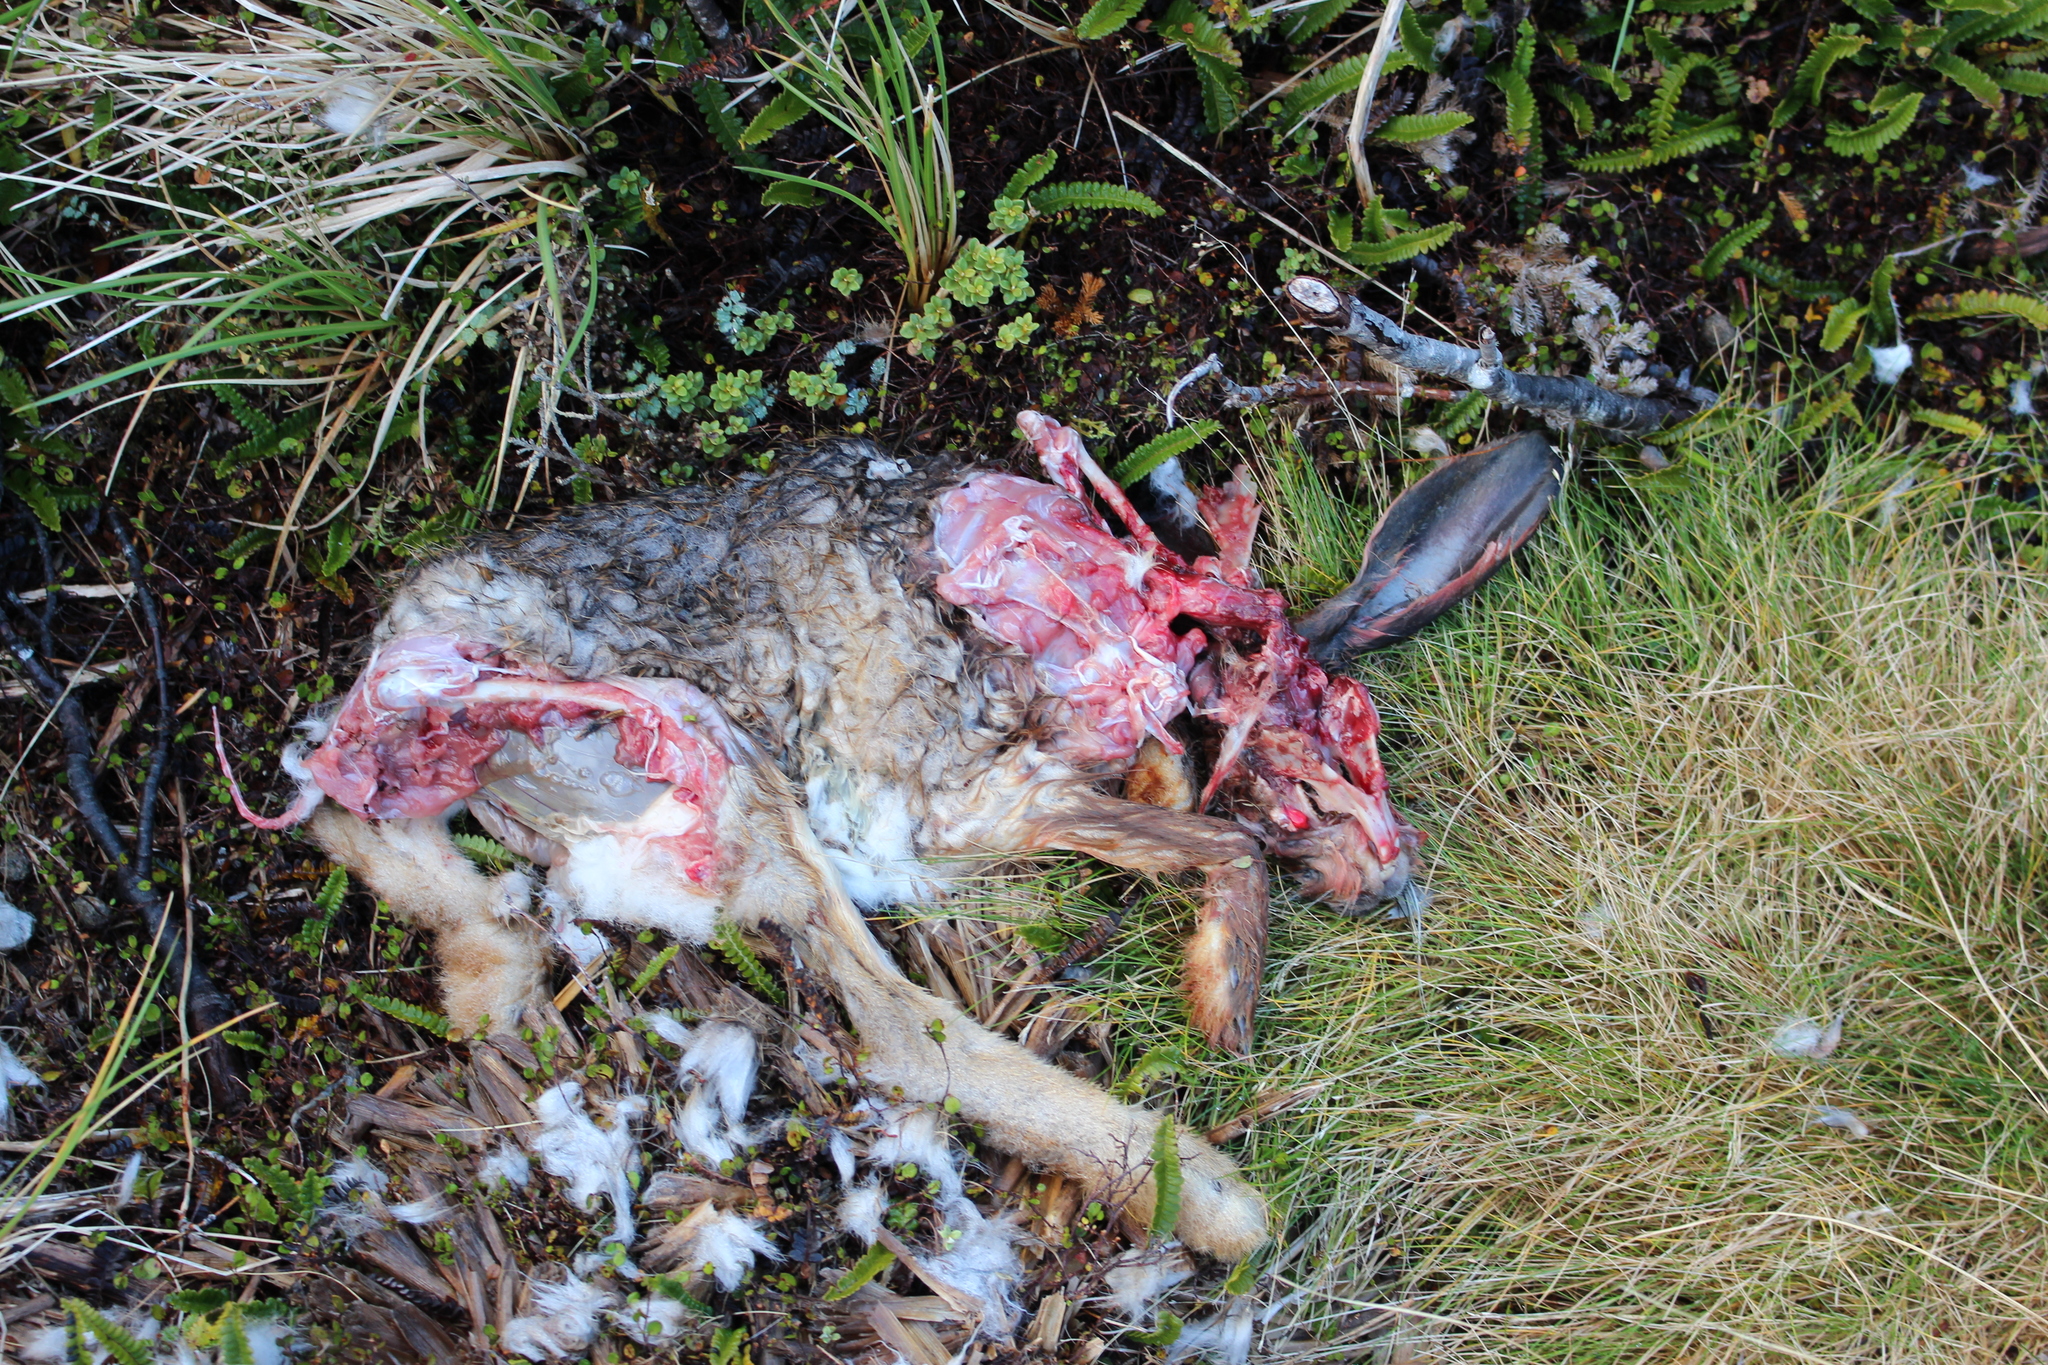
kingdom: Animalia
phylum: Chordata
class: Mammalia
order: Lagomorpha
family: Leporidae
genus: Lepus
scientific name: Lepus europaeus
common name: European hare
